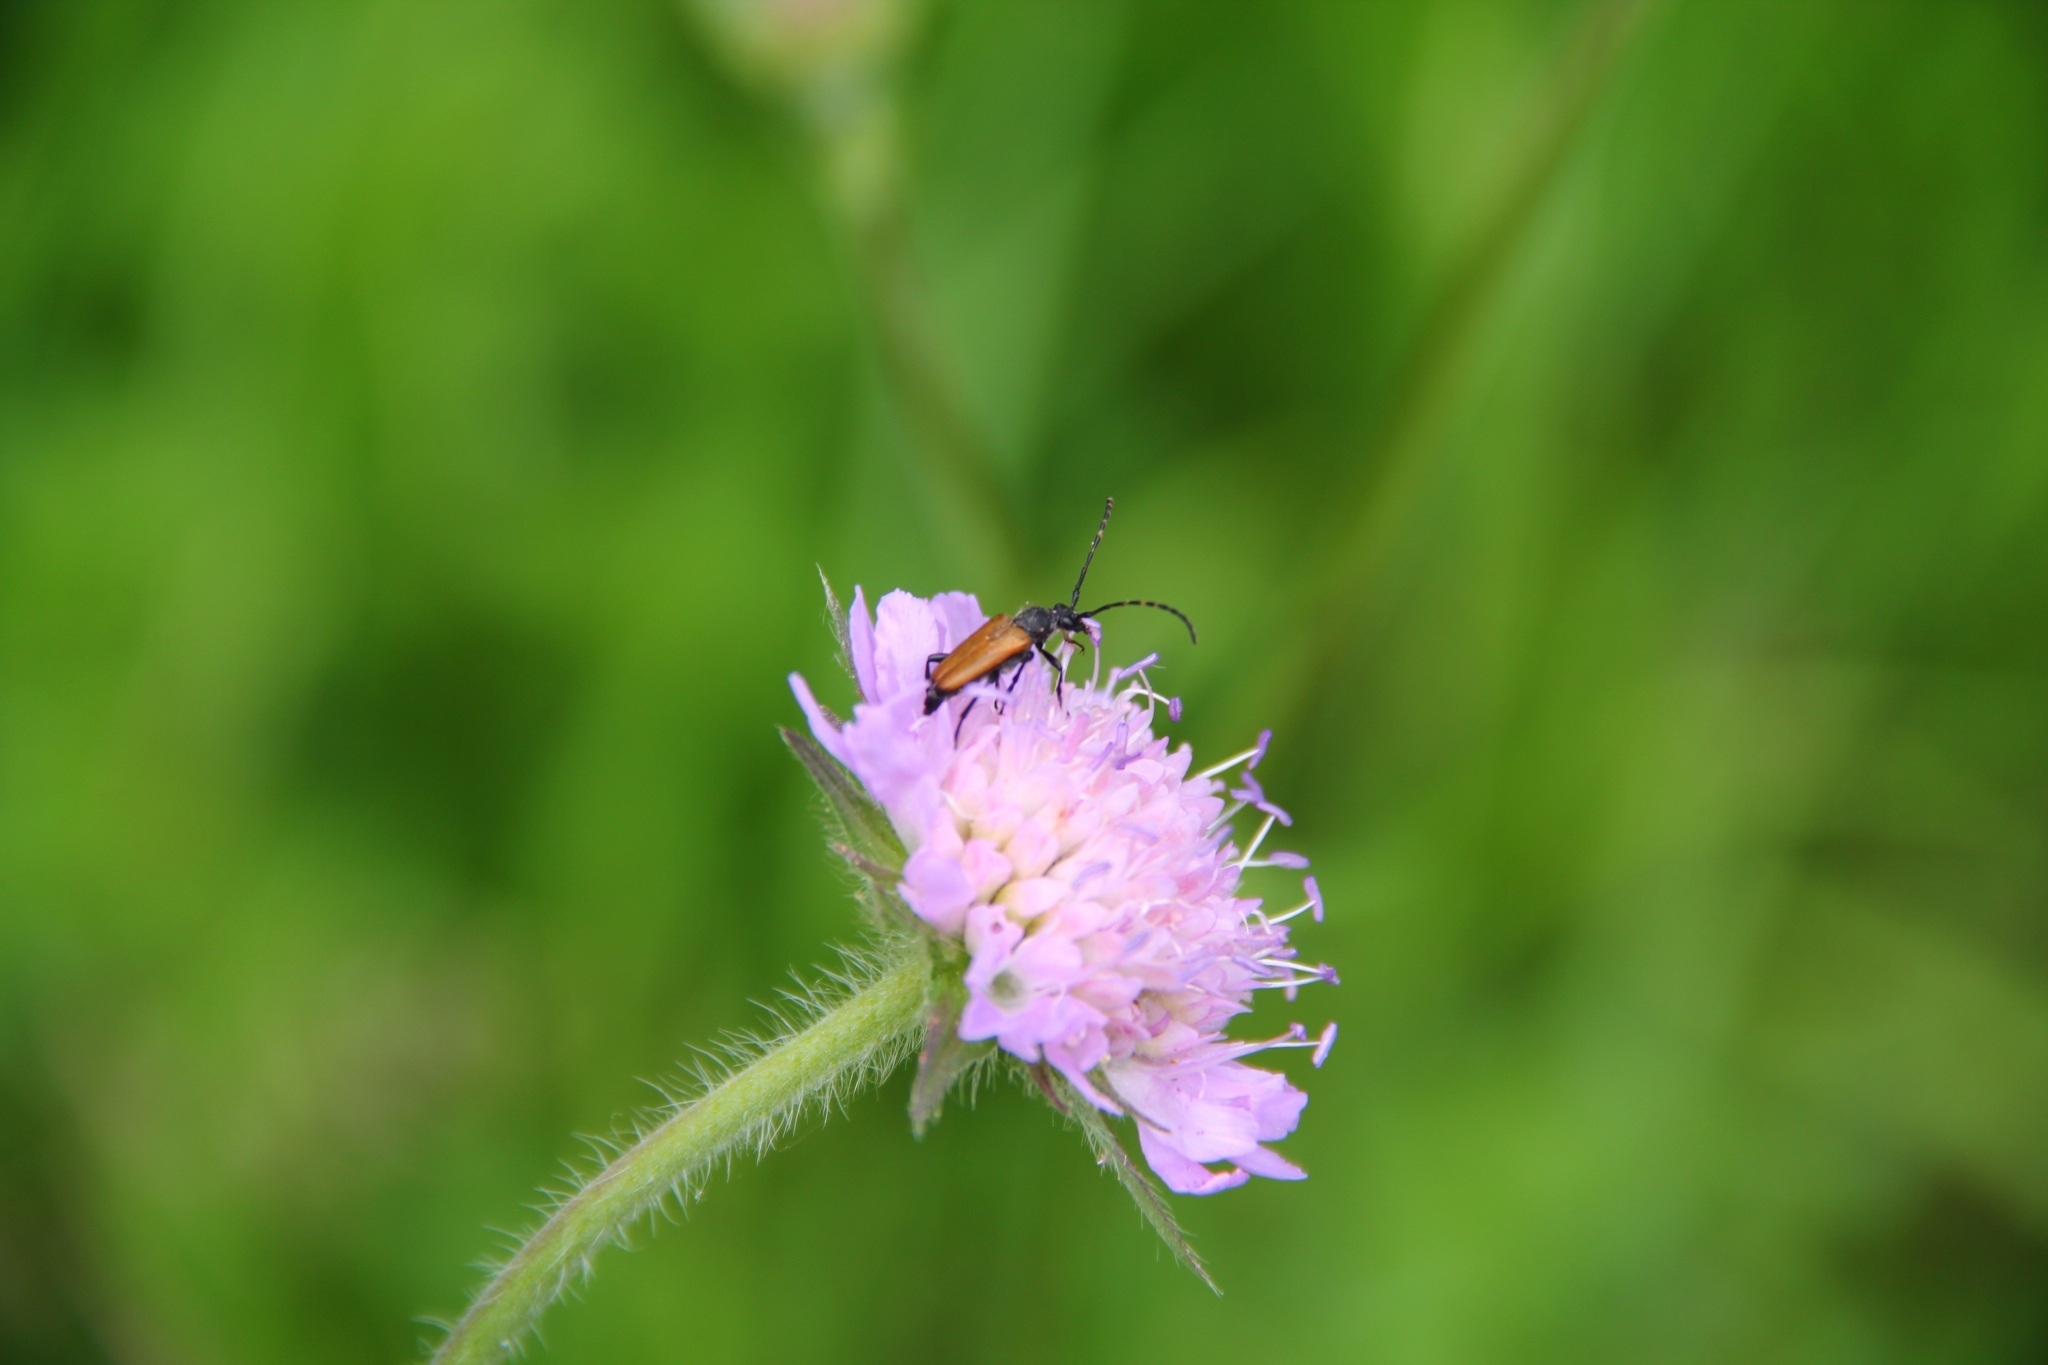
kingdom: Animalia
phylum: Arthropoda
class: Insecta
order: Coleoptera
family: Cerambycidae
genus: Paracorymbia
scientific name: Paracorymbia maculicornis
